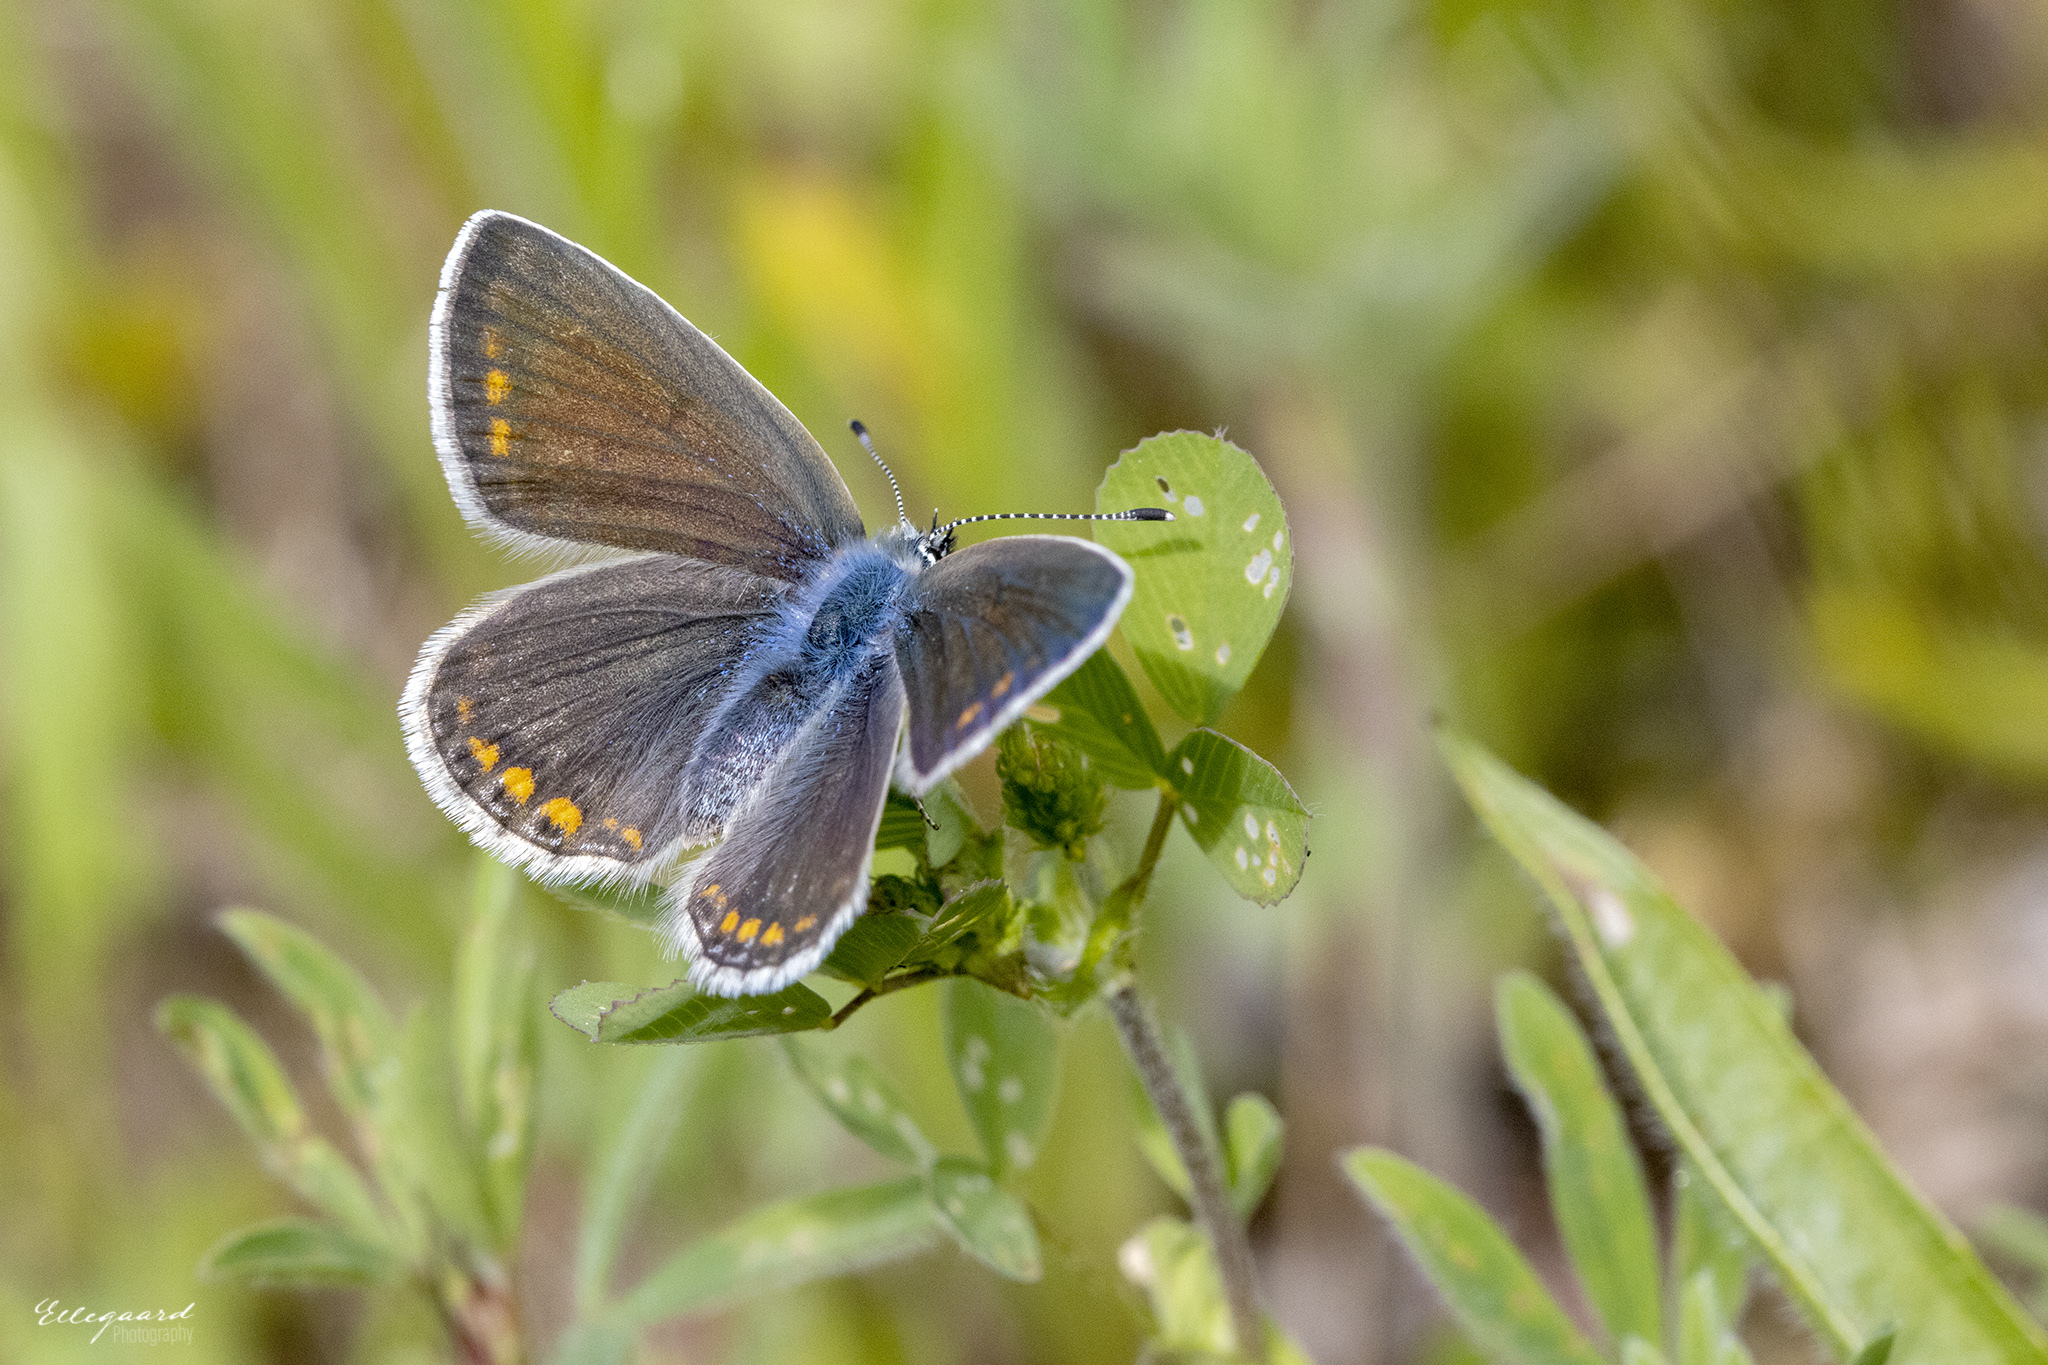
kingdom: Animalia
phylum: Arthropoda
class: Insecta
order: Lepidoptera
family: Lycaenidae
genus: Polyommatus
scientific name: Polyommatus icarus
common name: Common blue
